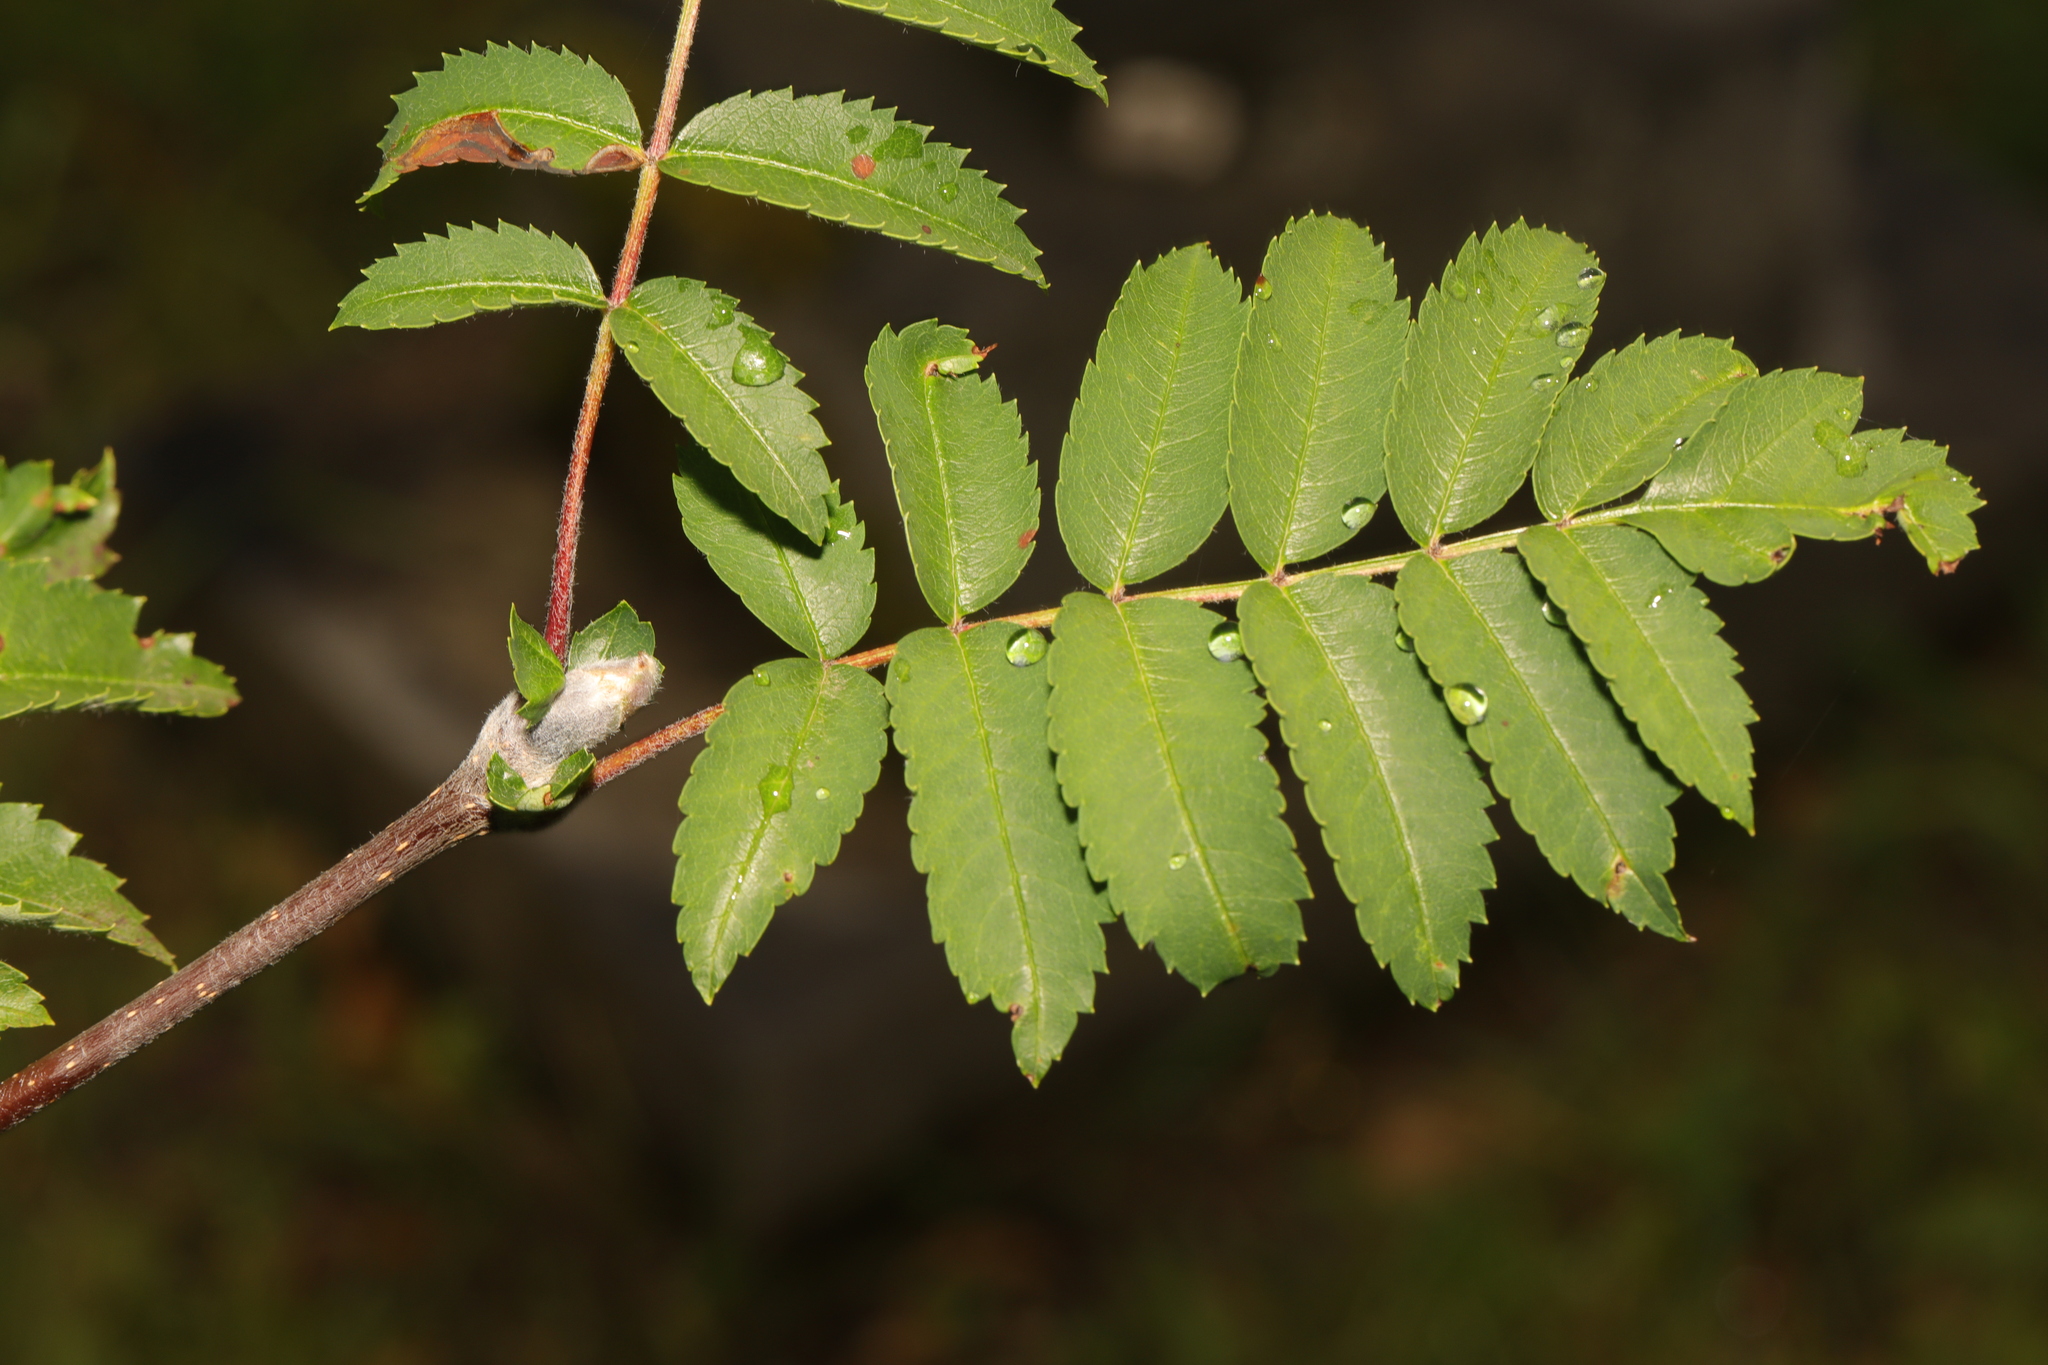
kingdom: Plantae
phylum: Tracheophyta
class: Magnoliopsida
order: Rosales
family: Rosaceae
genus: Sorbus
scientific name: Sorbus aucuparia
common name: Rowan
